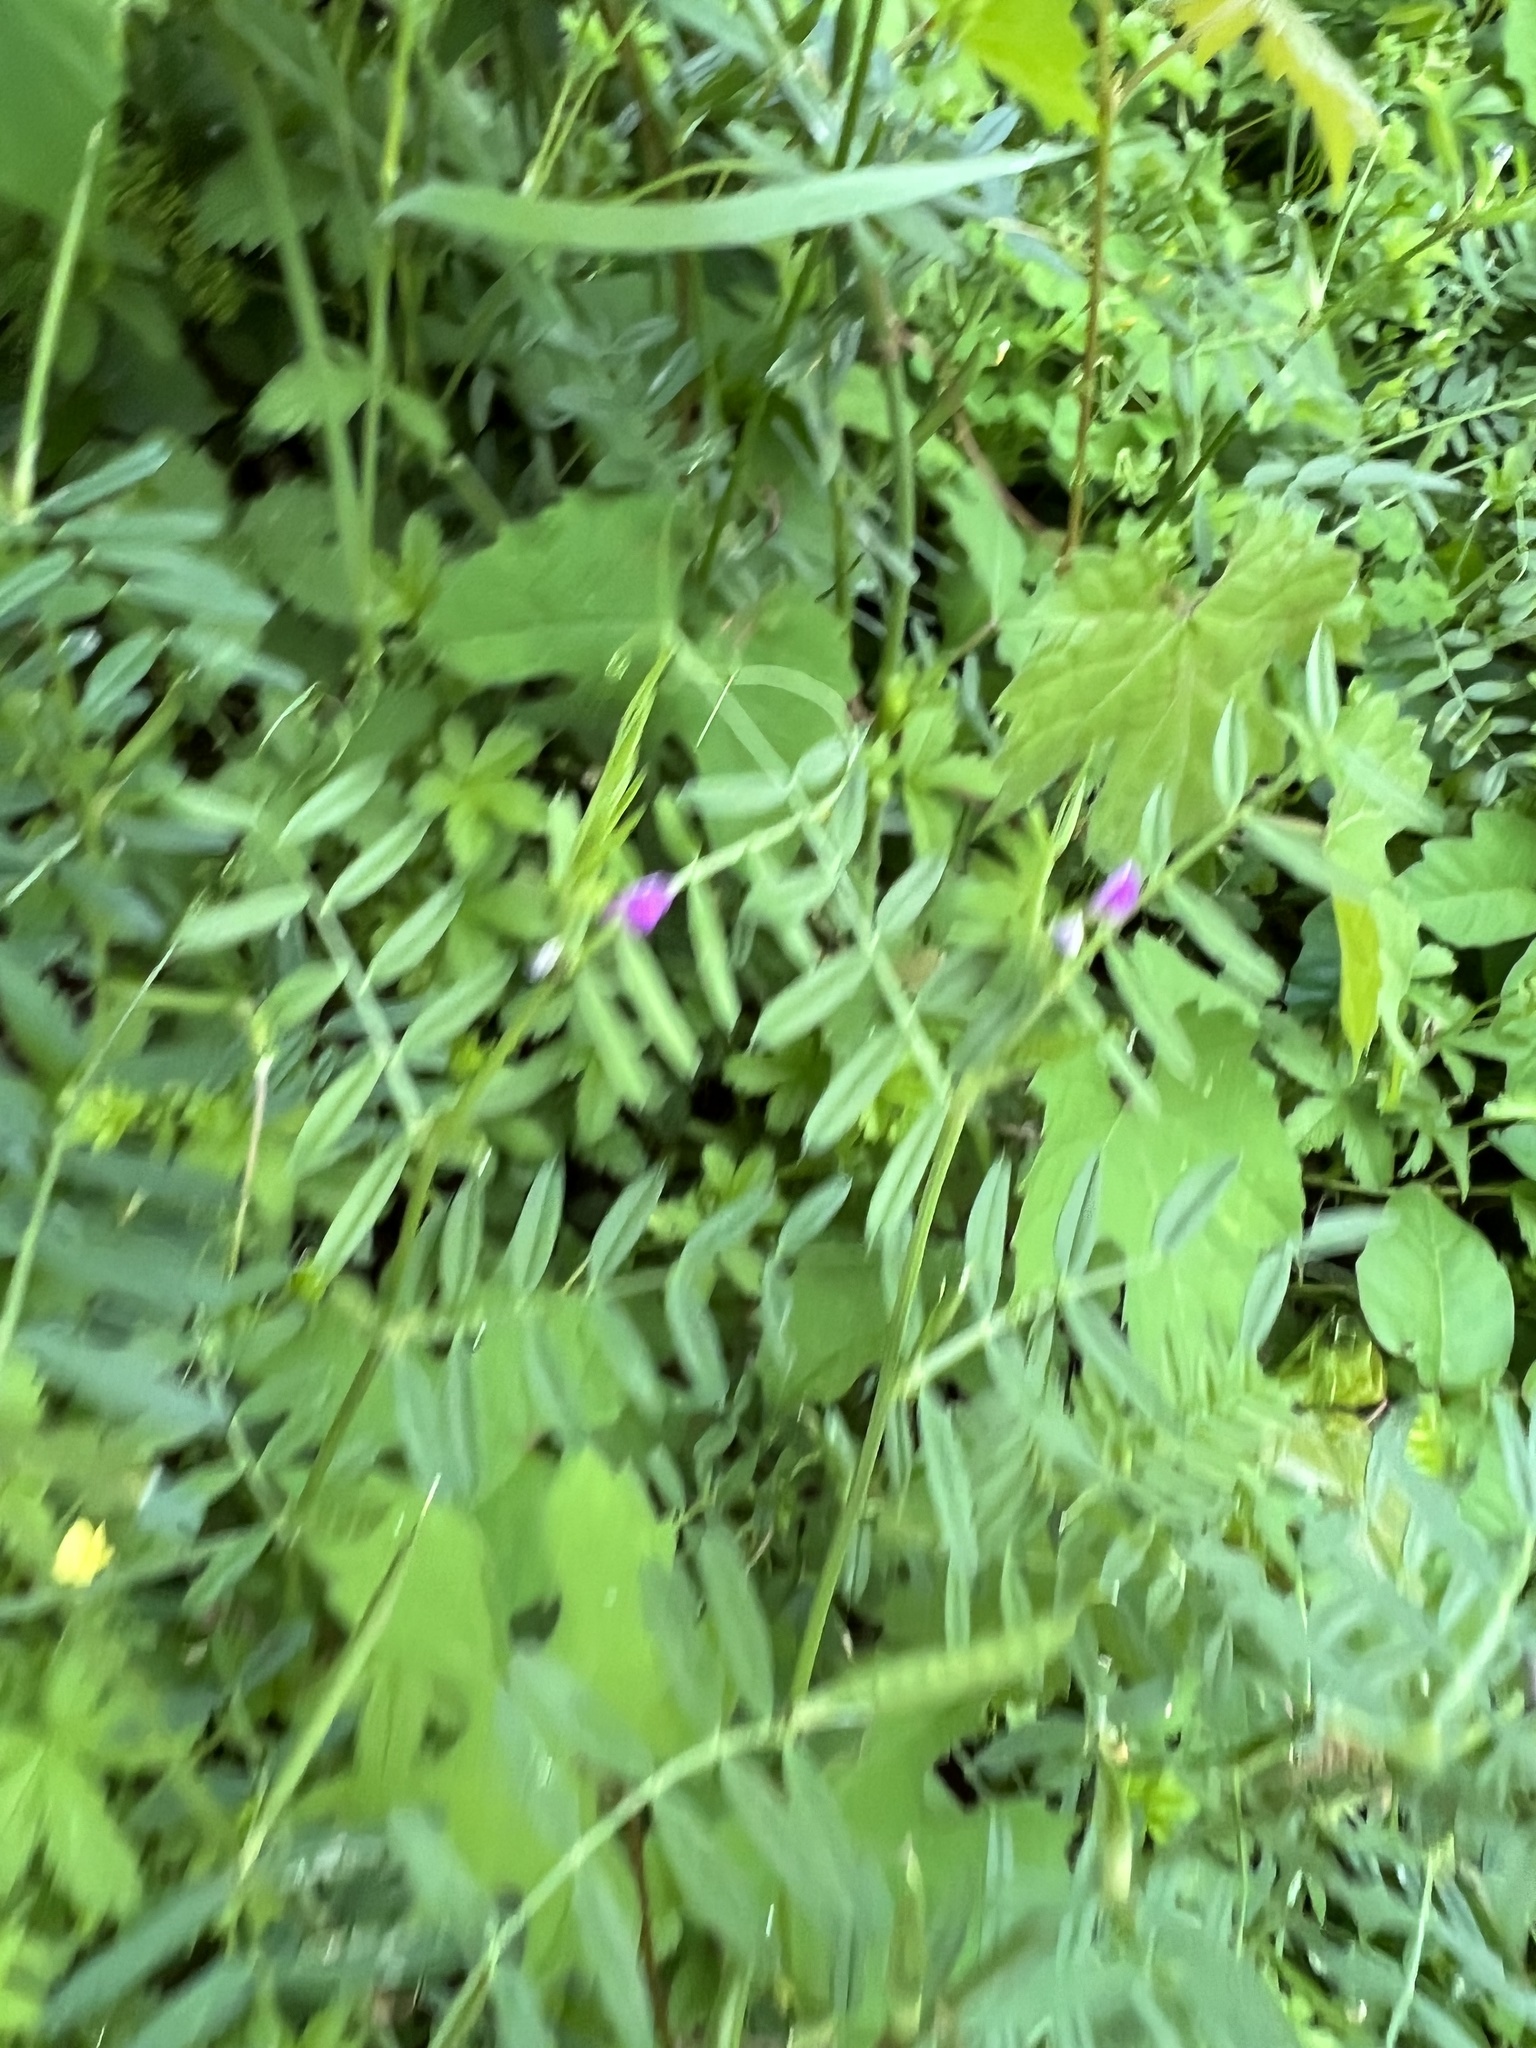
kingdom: Plantae
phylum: Tracheophyta
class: Magnoliopsida
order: Fabales
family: Fabaceae
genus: Vicia
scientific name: Vicia sativa
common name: Garden vetch
